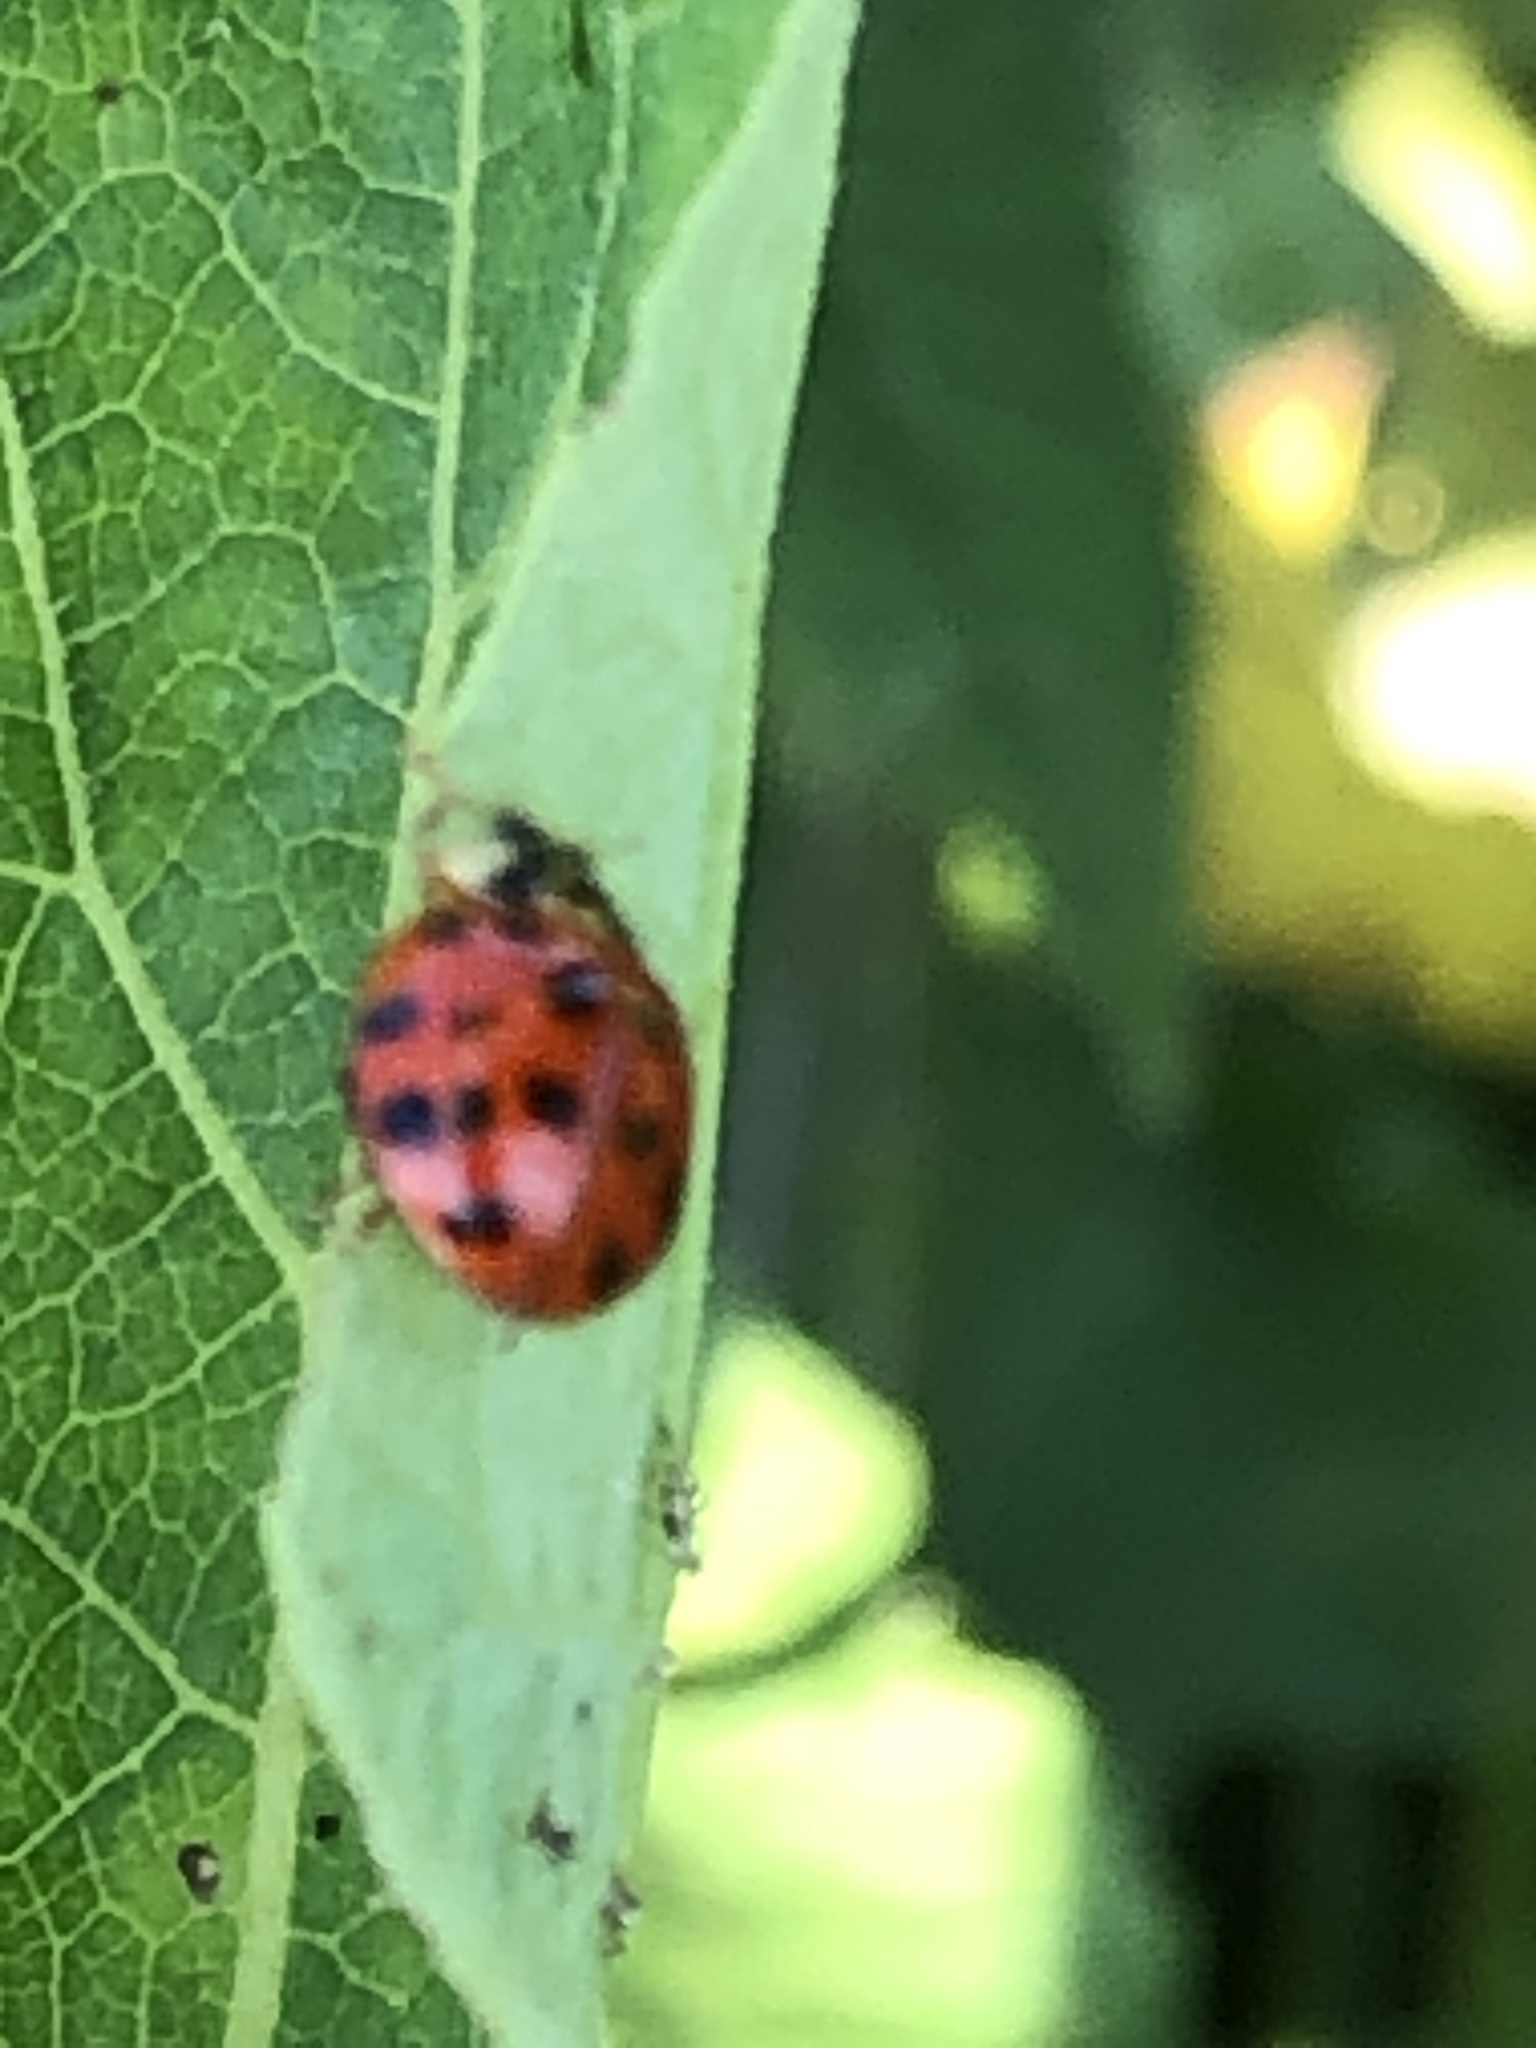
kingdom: Animalia
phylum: Arthropoda
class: Insecta
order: Coleoptera
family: Coccinellidae
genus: Harmonia
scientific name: Harmonia axyridis
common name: Harlequin ladybird
